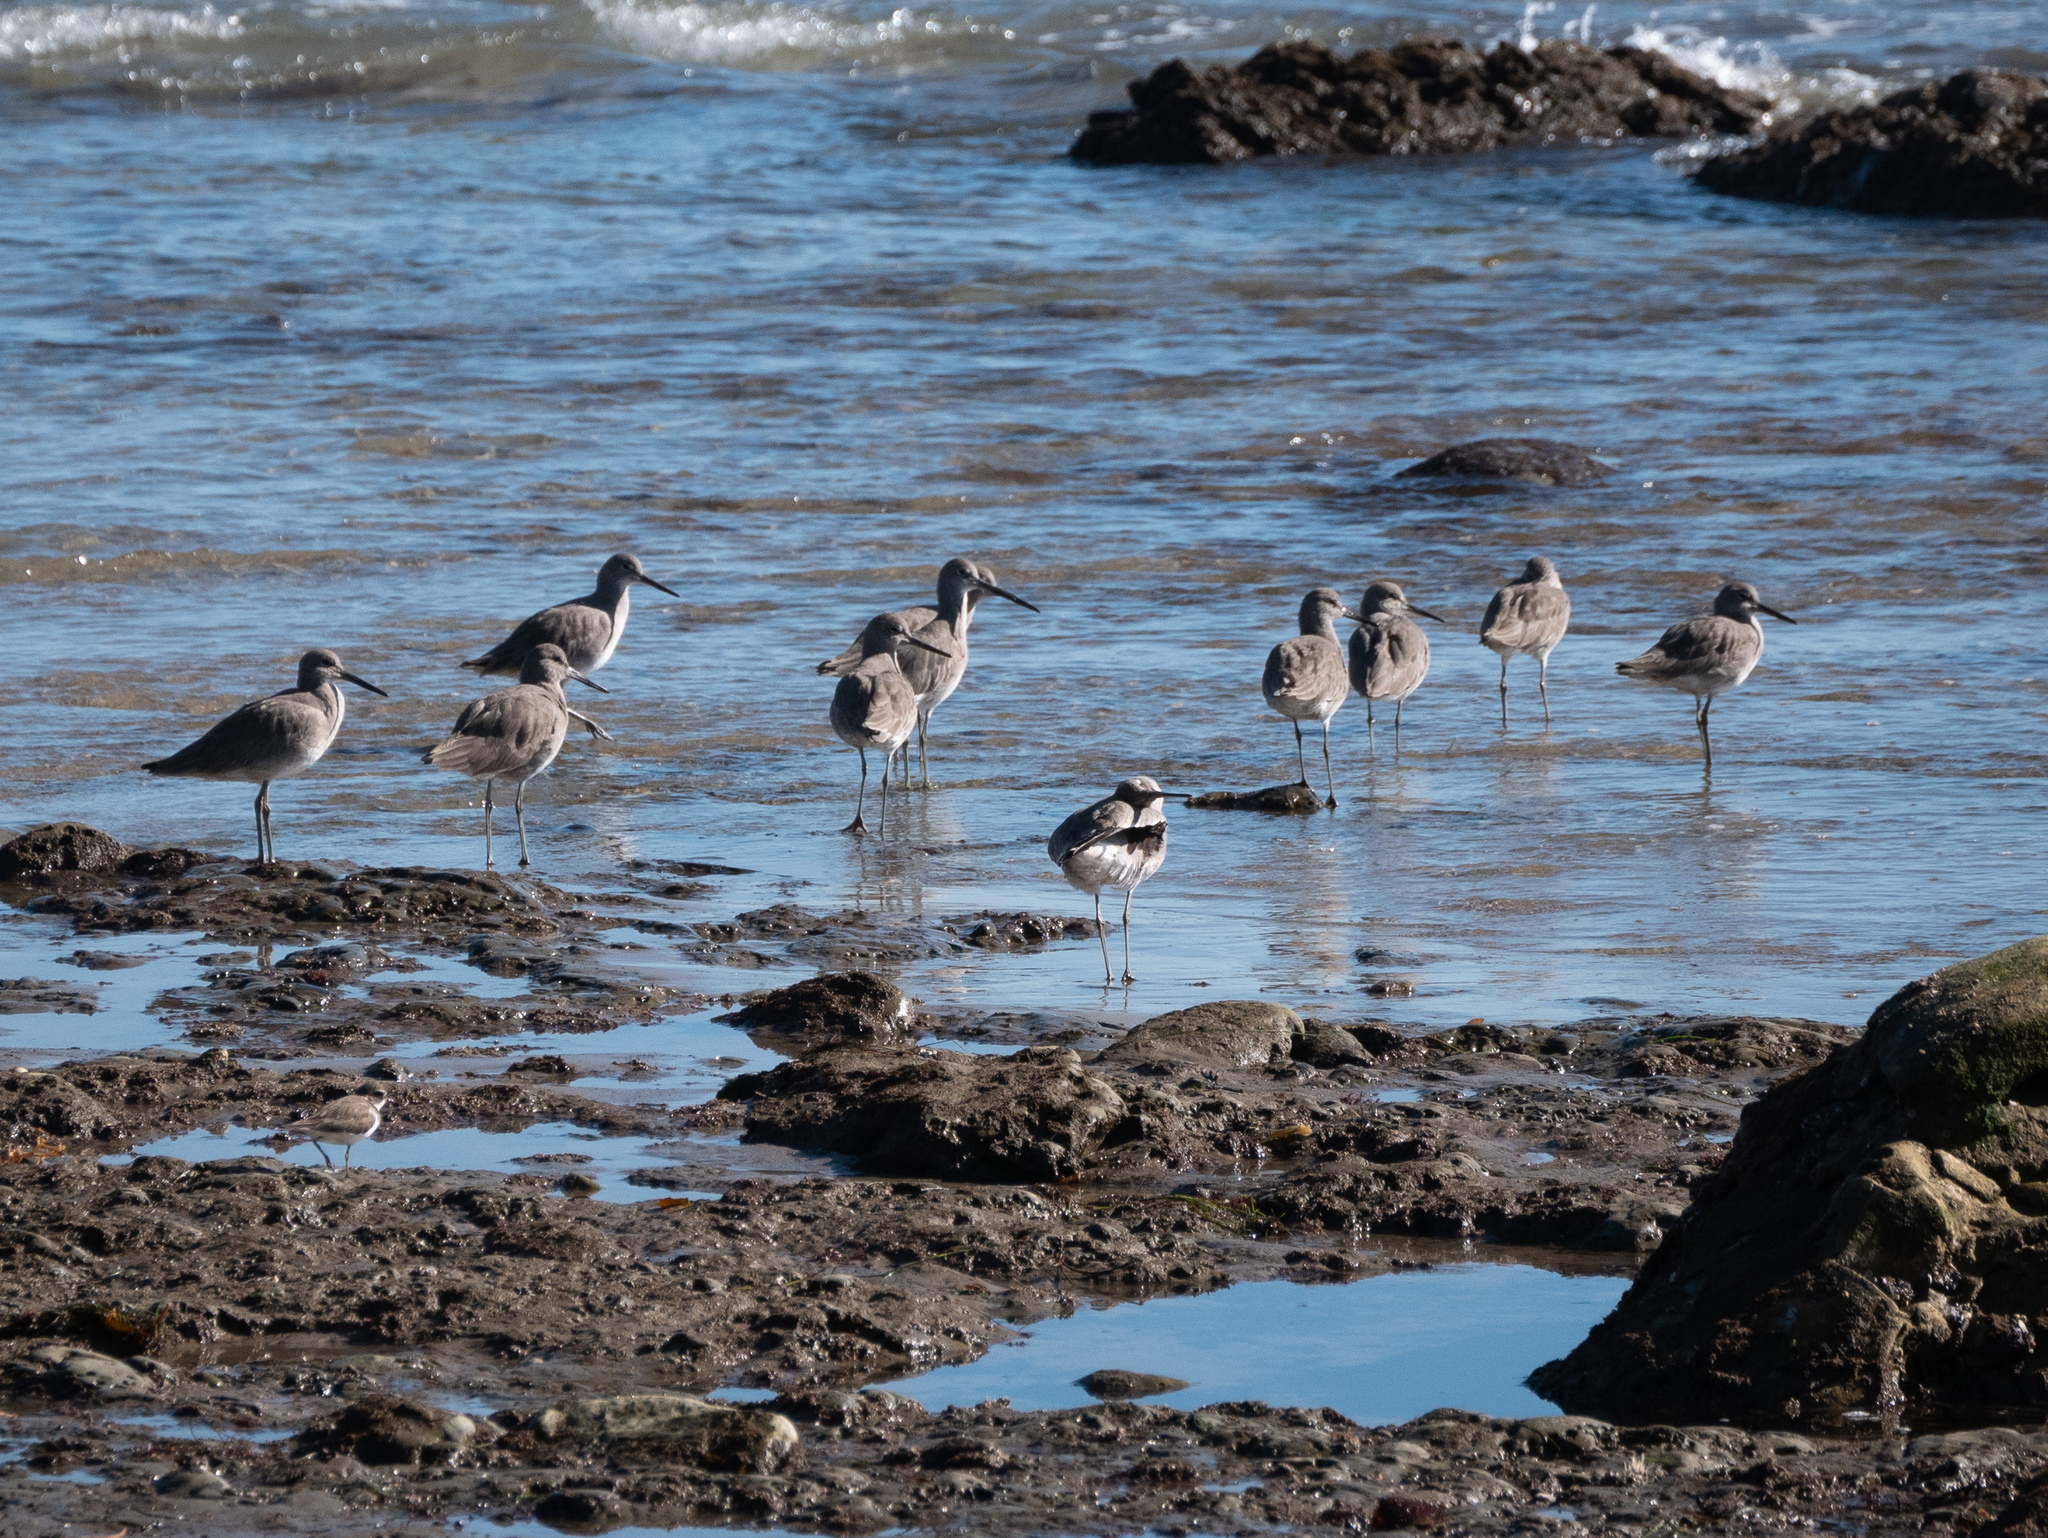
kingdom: Animalia
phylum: Chordata
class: Aves
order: Charadriiformes
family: Scolopacidae
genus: Tringa
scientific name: Tringa semipalmata
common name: Willet
